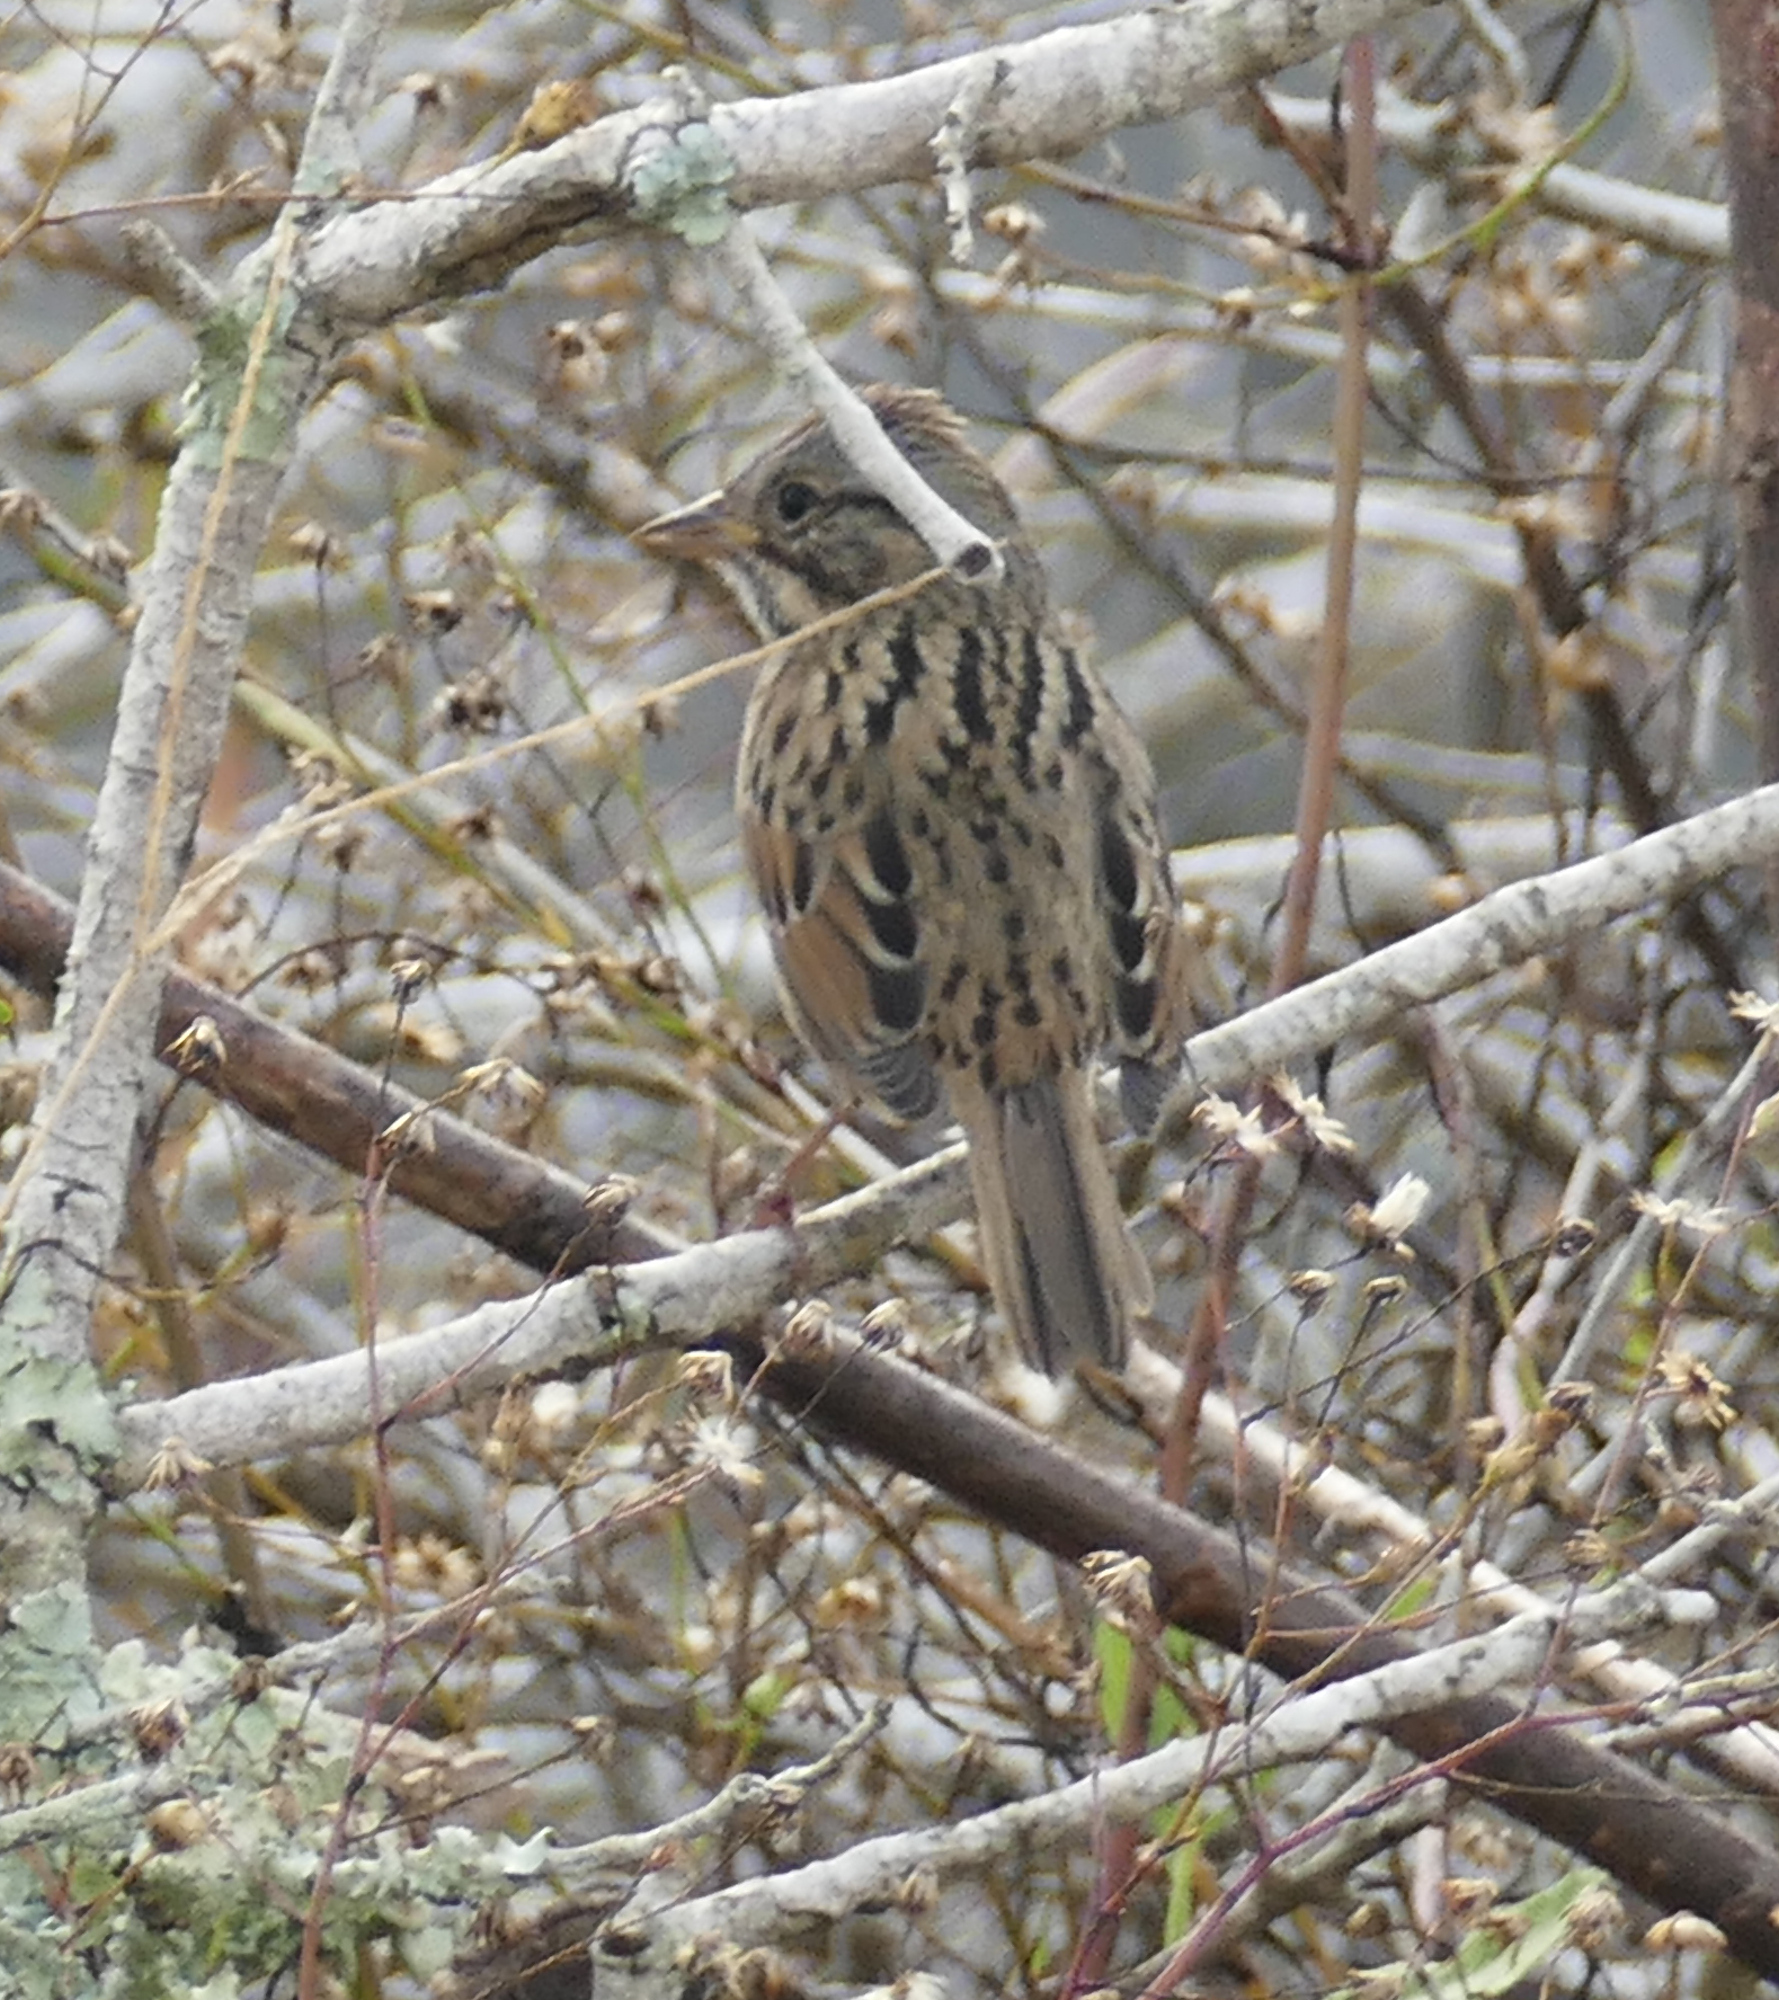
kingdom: Animalia
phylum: Chordata
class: Aves
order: Passeriformes
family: Passerellidae
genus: Melospiza
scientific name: Melospiza lincolnii
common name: Lincoln's sparrow
